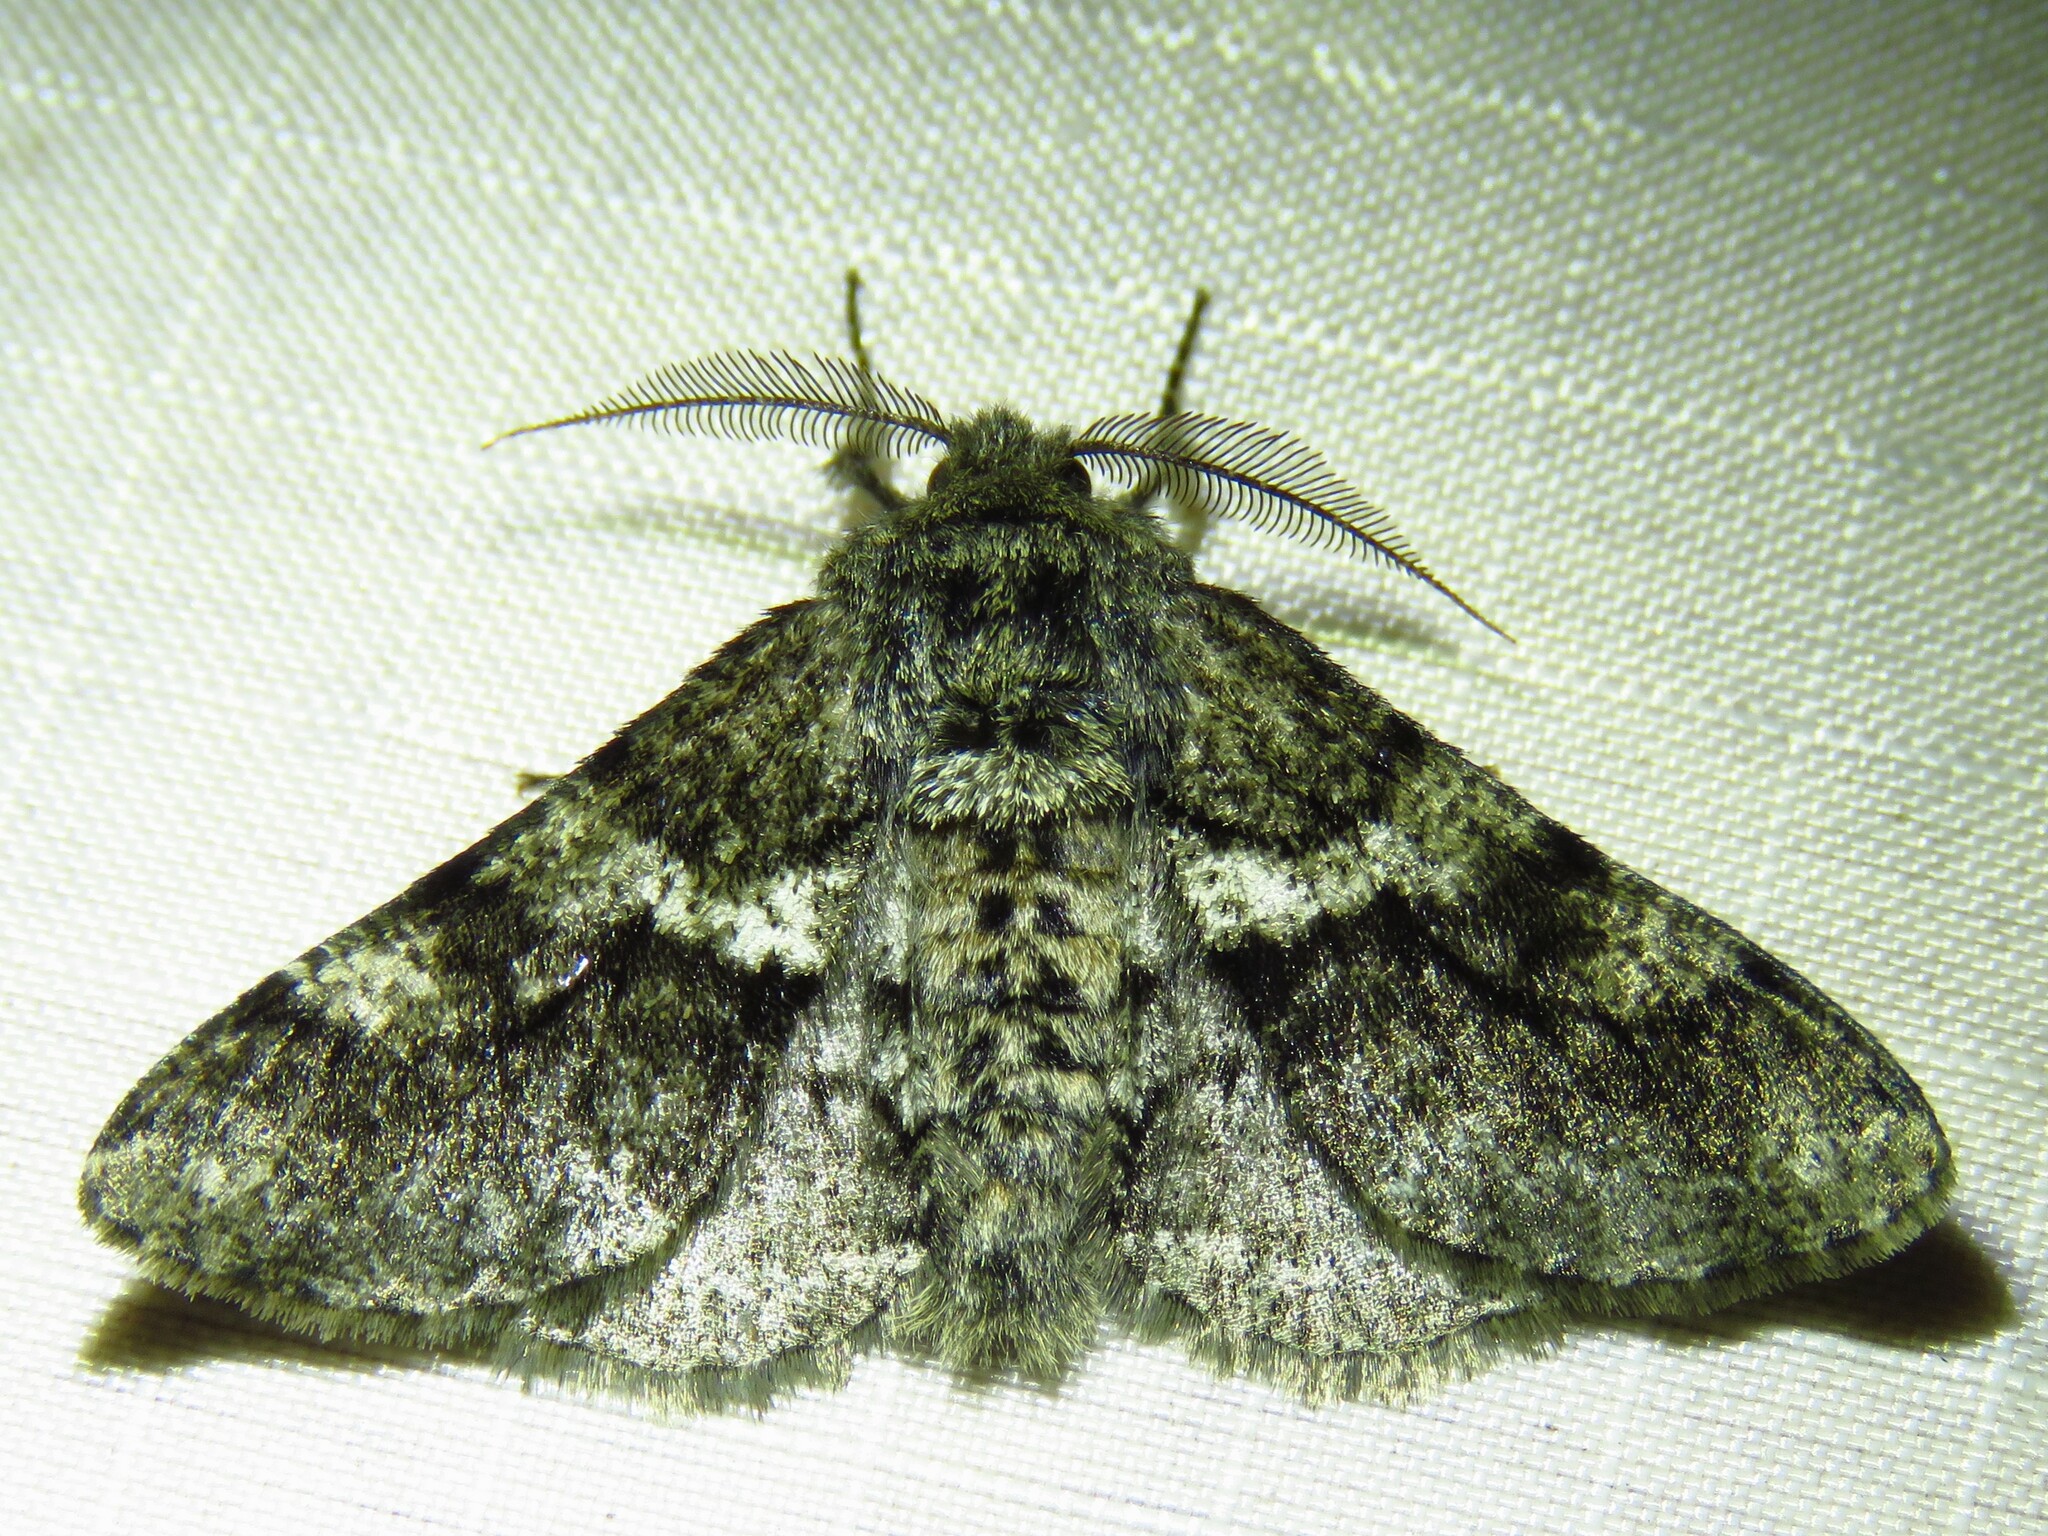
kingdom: Animalia
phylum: Arthropoda
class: Insecta
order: Lepidoptera
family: Geometridae
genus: Lycia
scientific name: Lycia ypsilon
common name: Wooly gray
